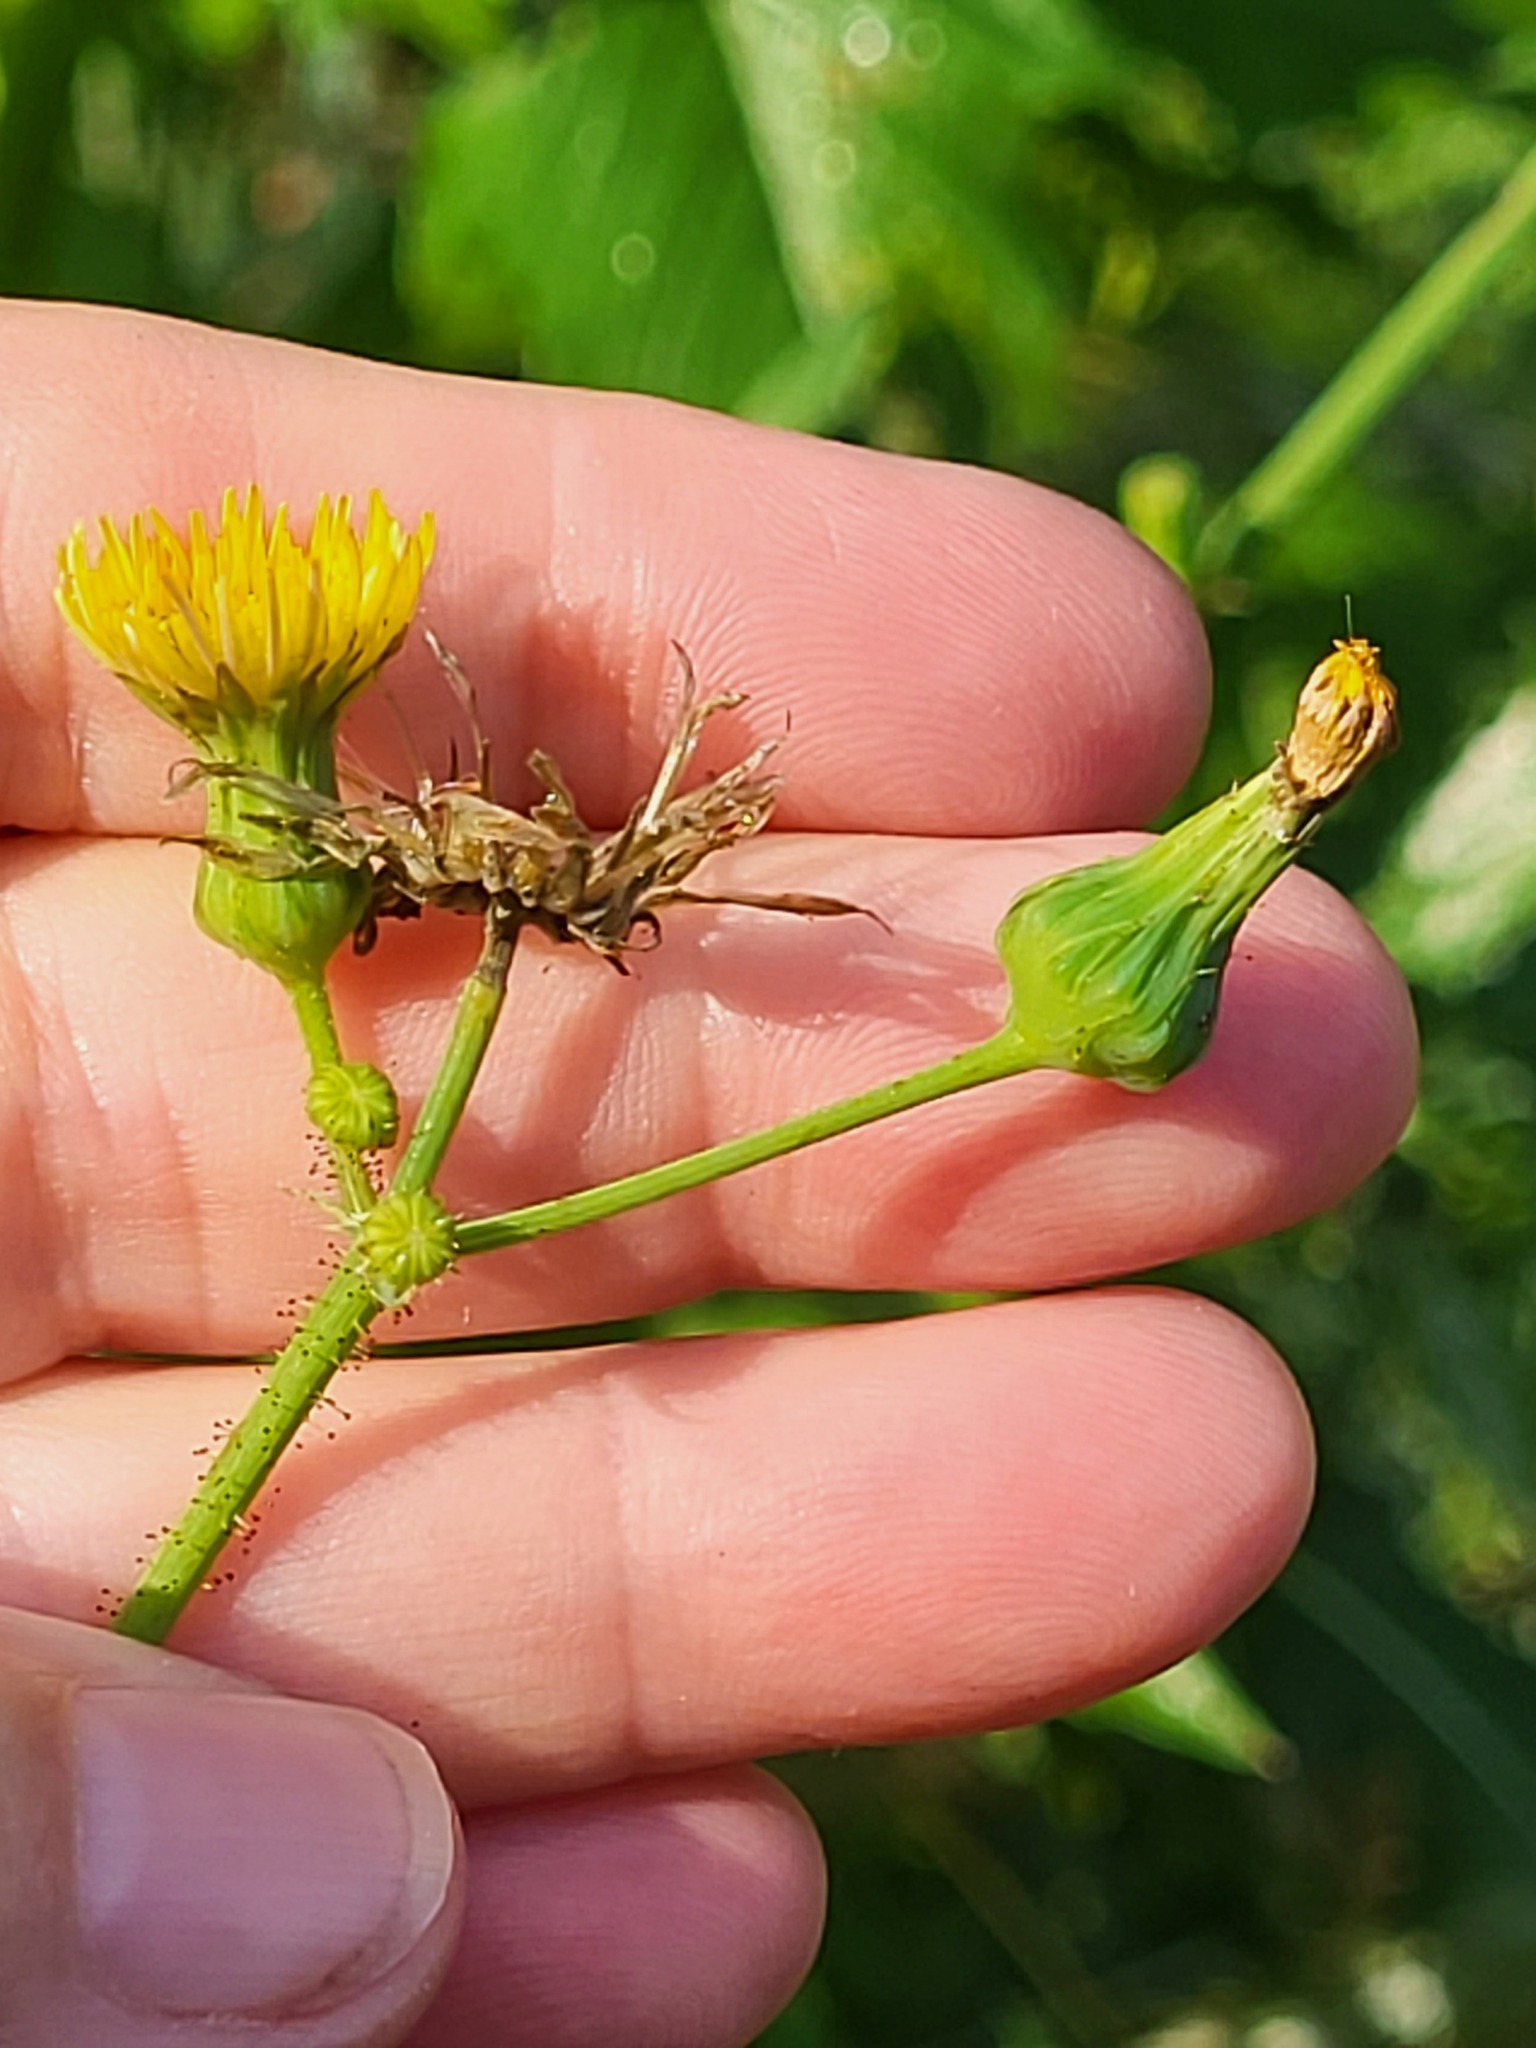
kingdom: Plantae
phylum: Tracheophyta
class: Magnoliopsida
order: Asterales
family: Asteraceae
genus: Sonchus
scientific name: Sonchus asper
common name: Prickly sow-thistle
